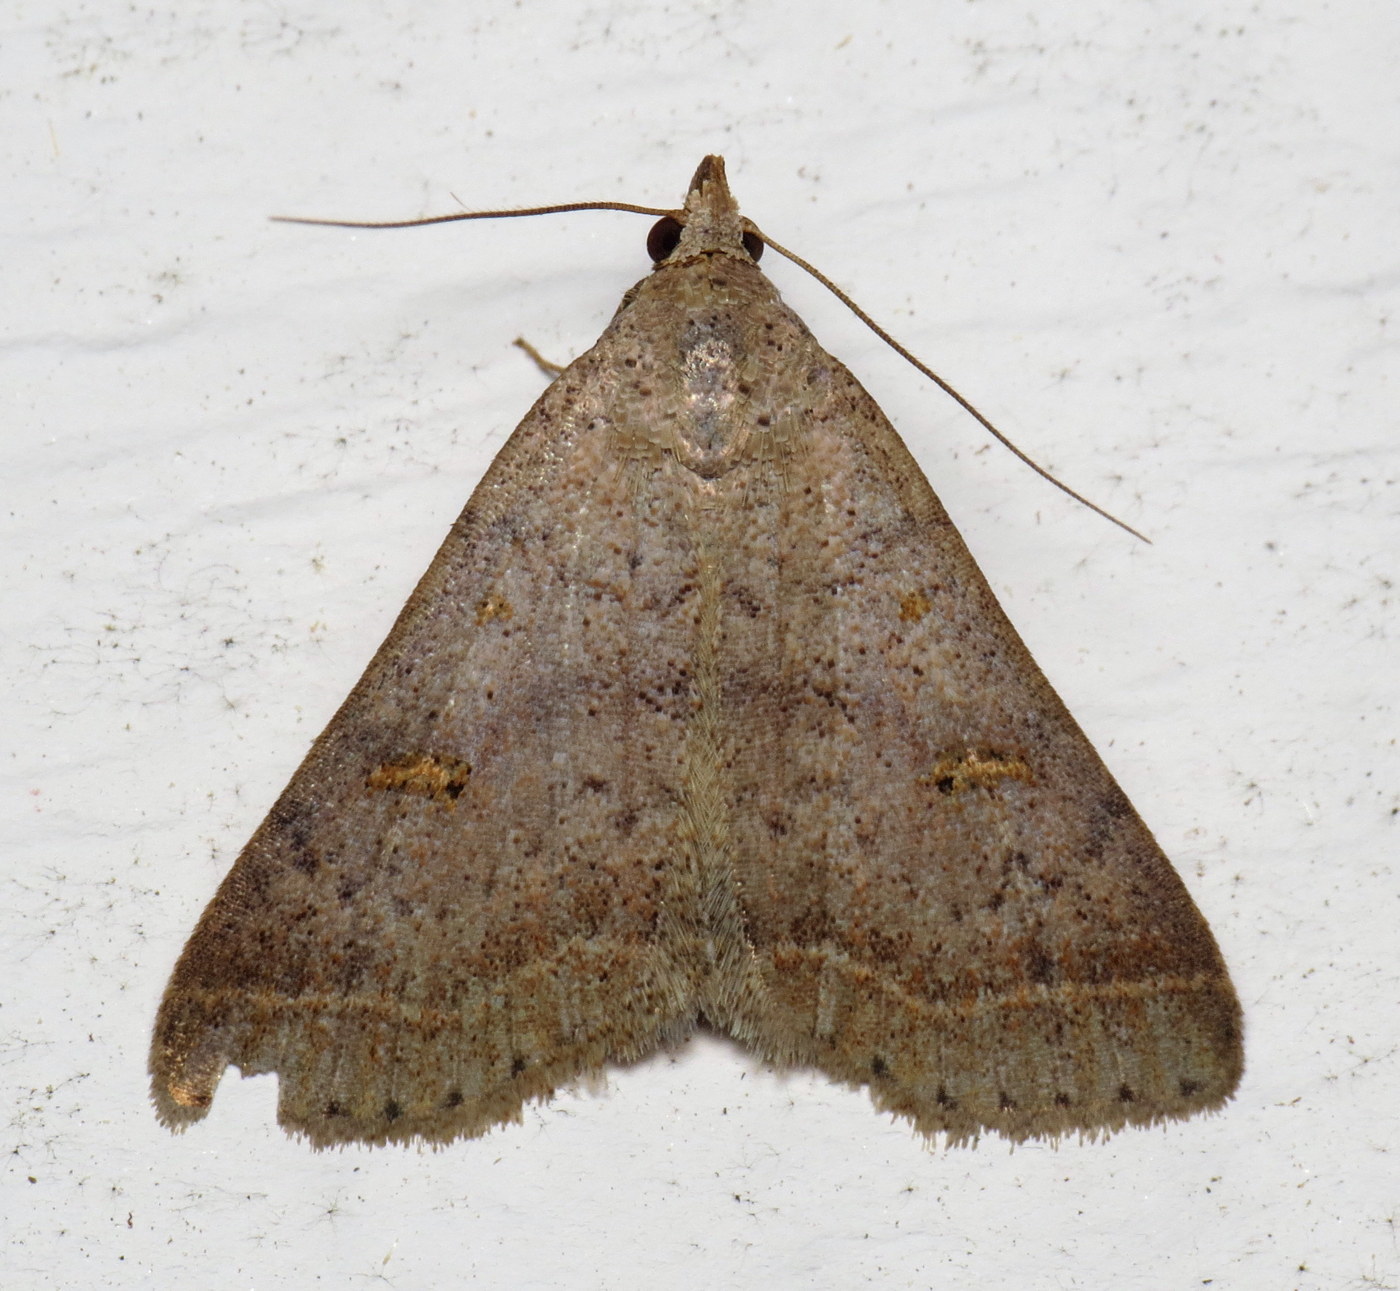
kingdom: Animalia
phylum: Arthropoda
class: Insecta
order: Lepidoptera
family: Erebidae
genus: Bleptina
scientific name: Bleptina caradrinalis
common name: Bent-winged owlet
